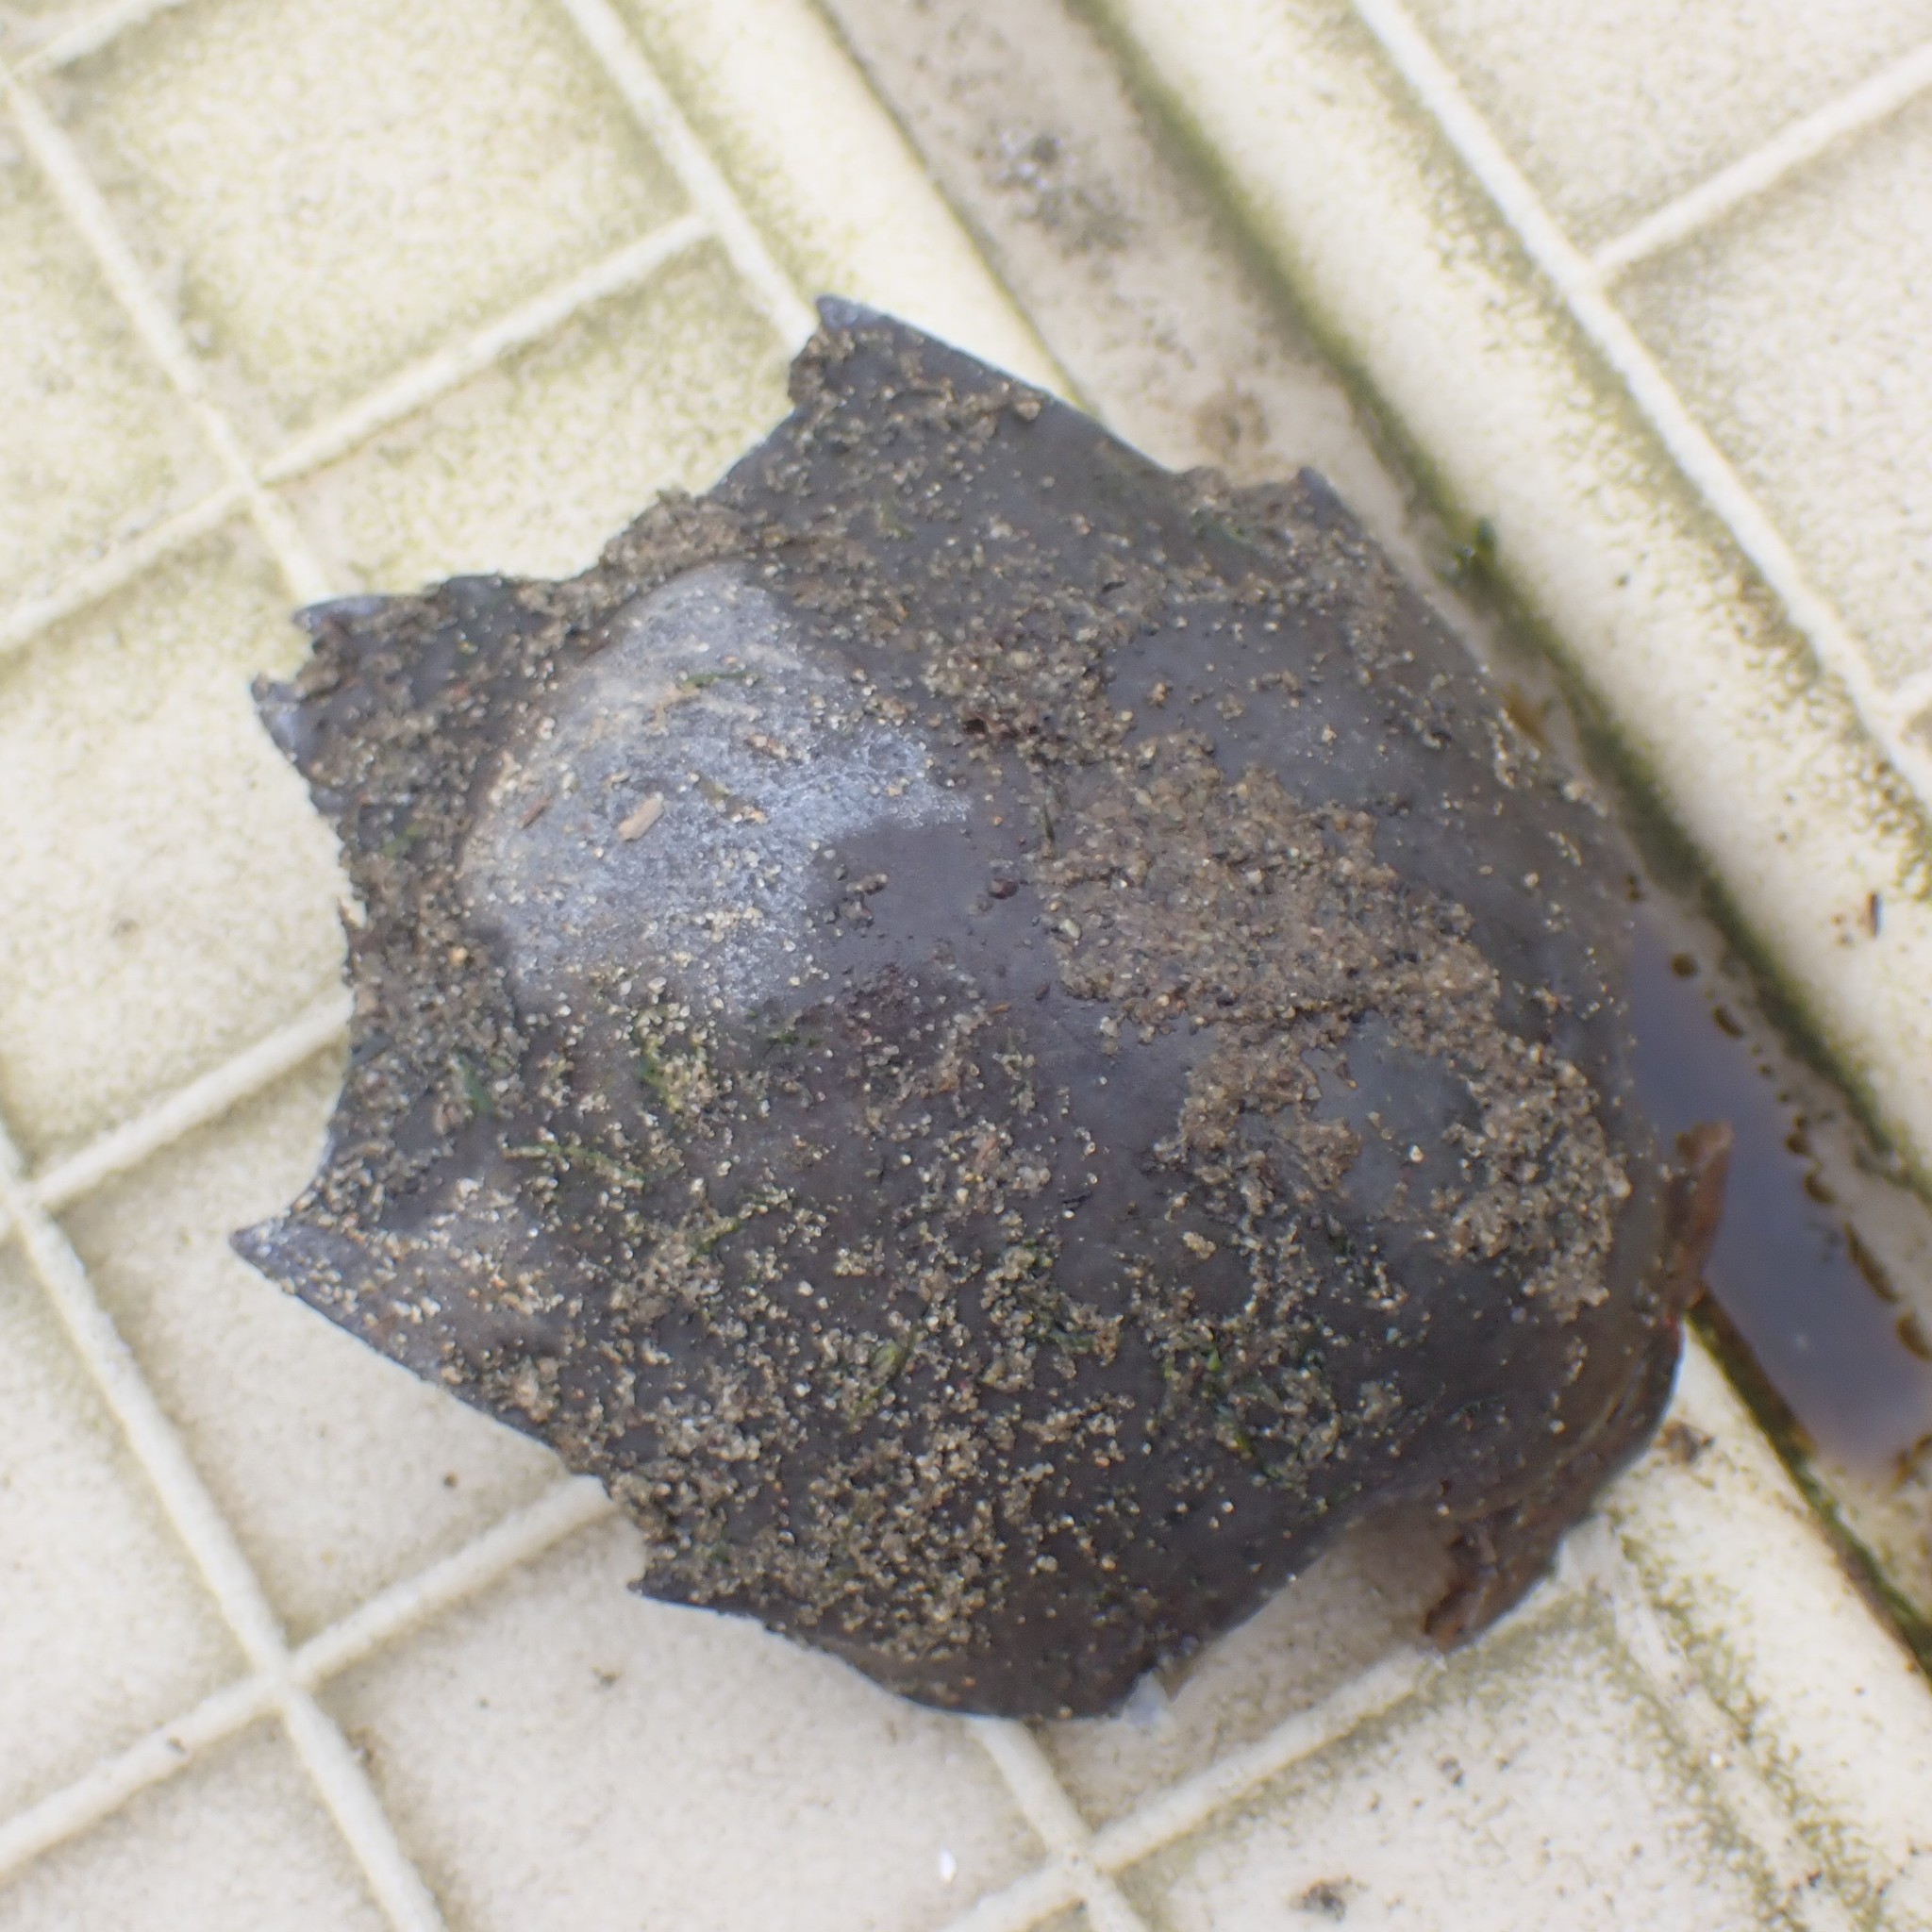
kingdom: Animalia
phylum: Arthropoda
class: Malacostraca
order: Decapoda
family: Epialtidae
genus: Pugettia
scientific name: Pugettia producta
